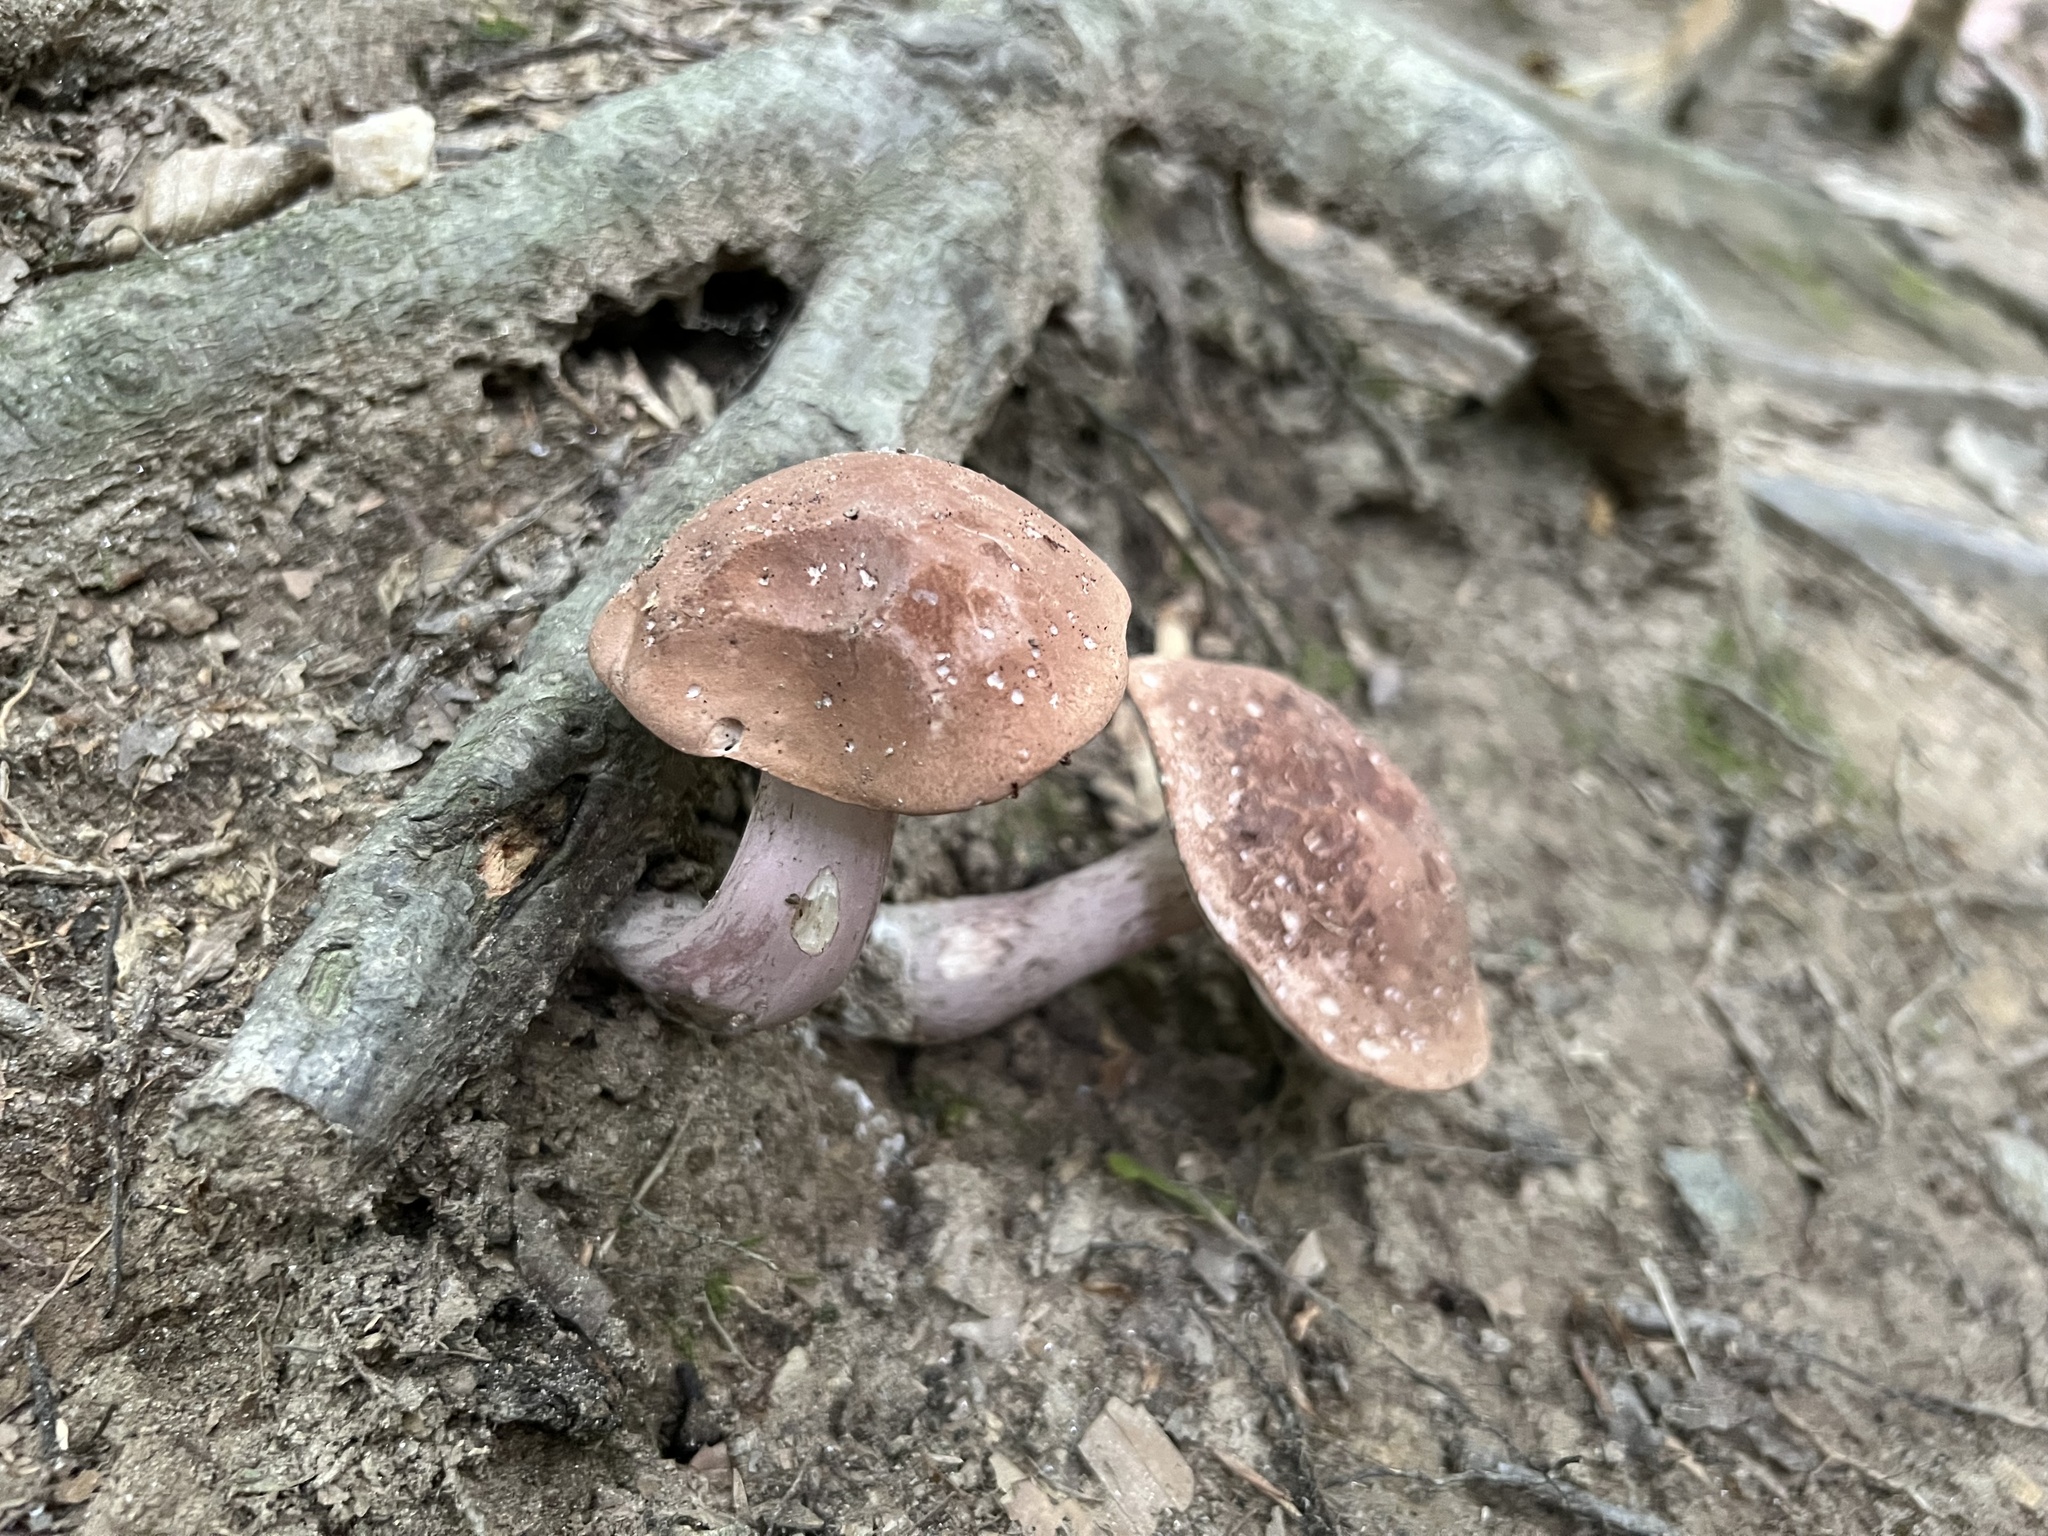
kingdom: Fungi
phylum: Basidiomycota
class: Agaricomycetes
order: Boletales
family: Boletaceae
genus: Tylopilus
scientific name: Tylopilus plumbeoviolaceus
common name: Violet gray bolete
